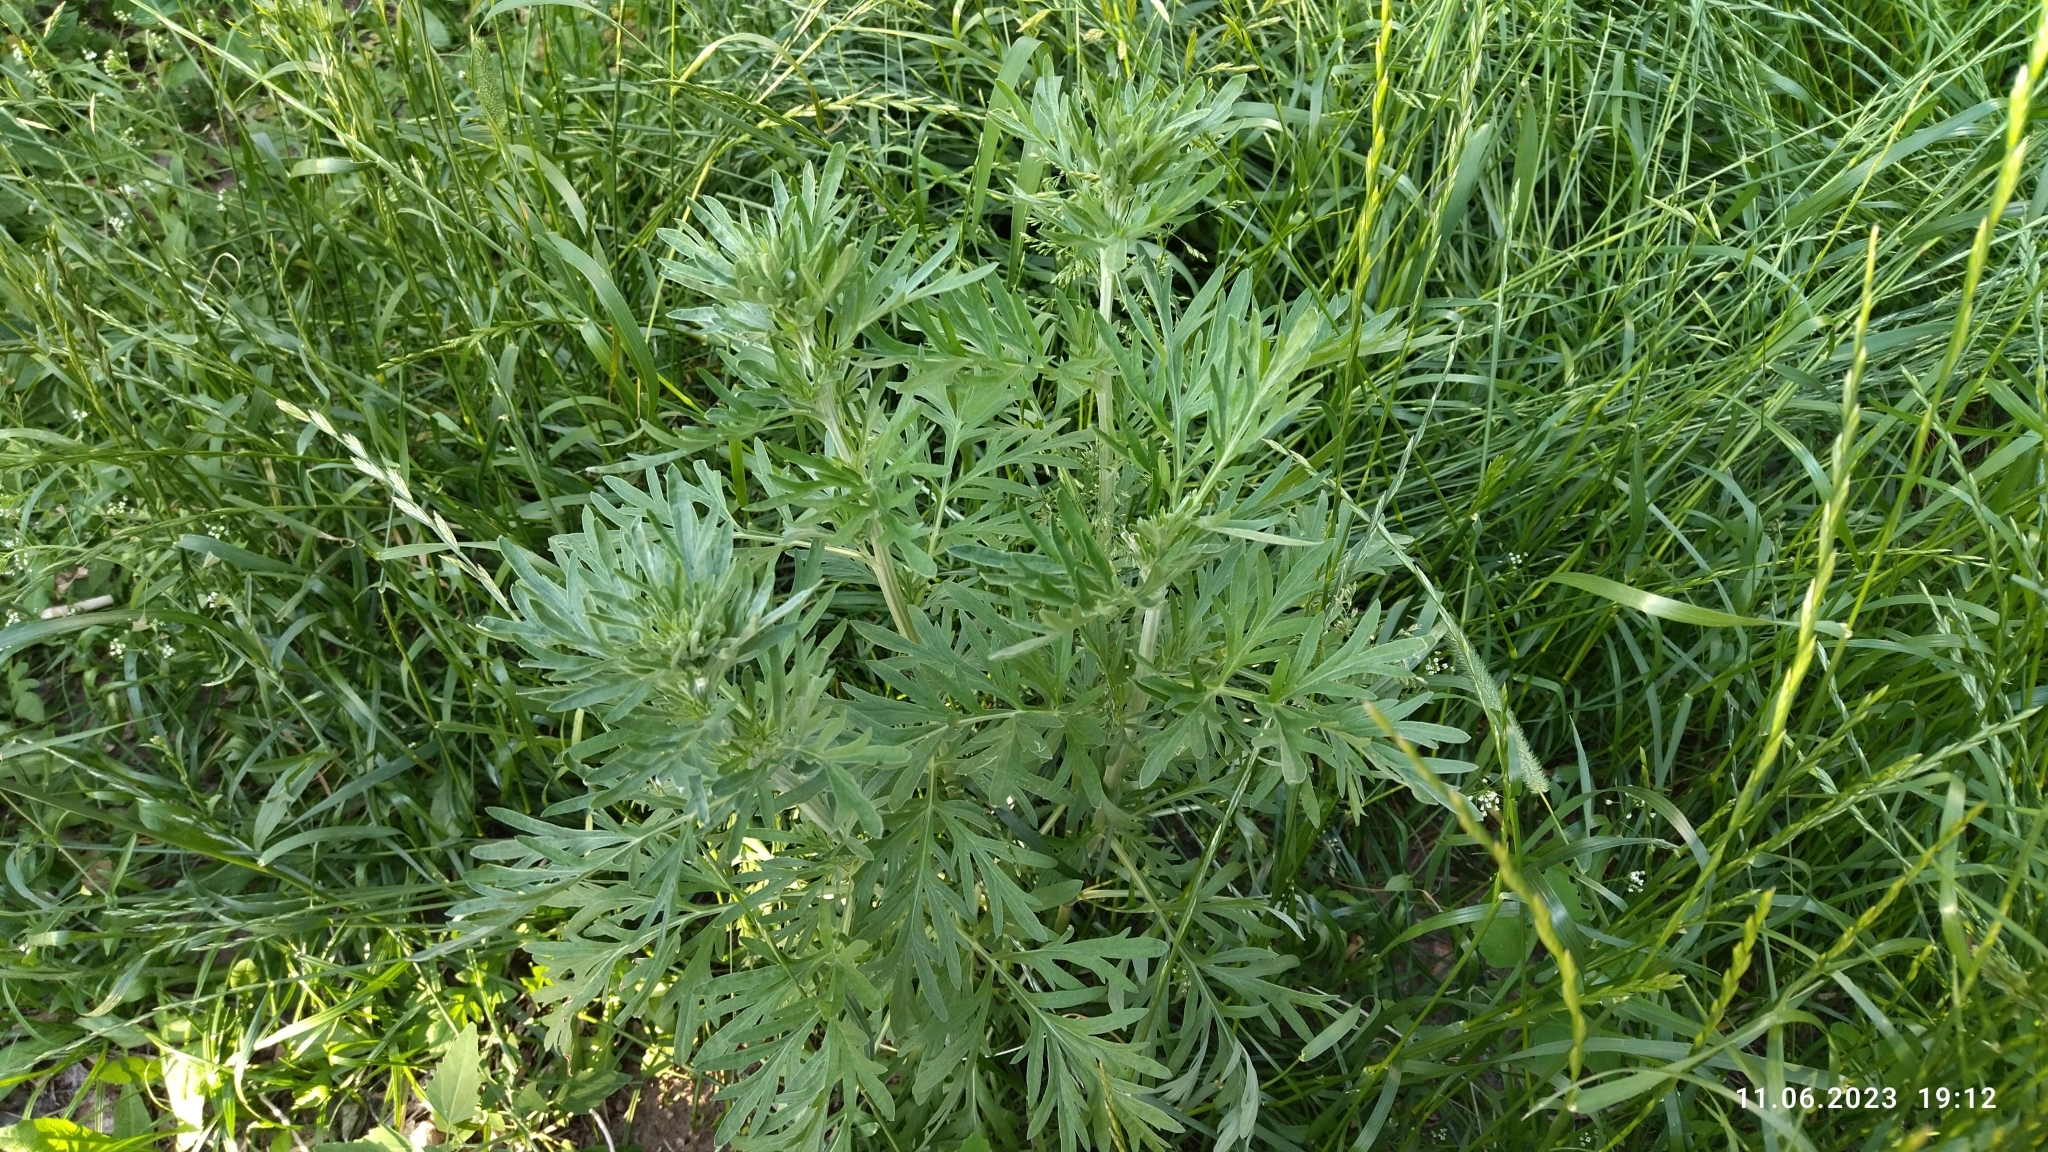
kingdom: Plantae
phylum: Tracheophyta
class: Magnoliopsida
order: Asterales
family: Asteraceae
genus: Artemisia
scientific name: Artemisia absinthium
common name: Wormwood
